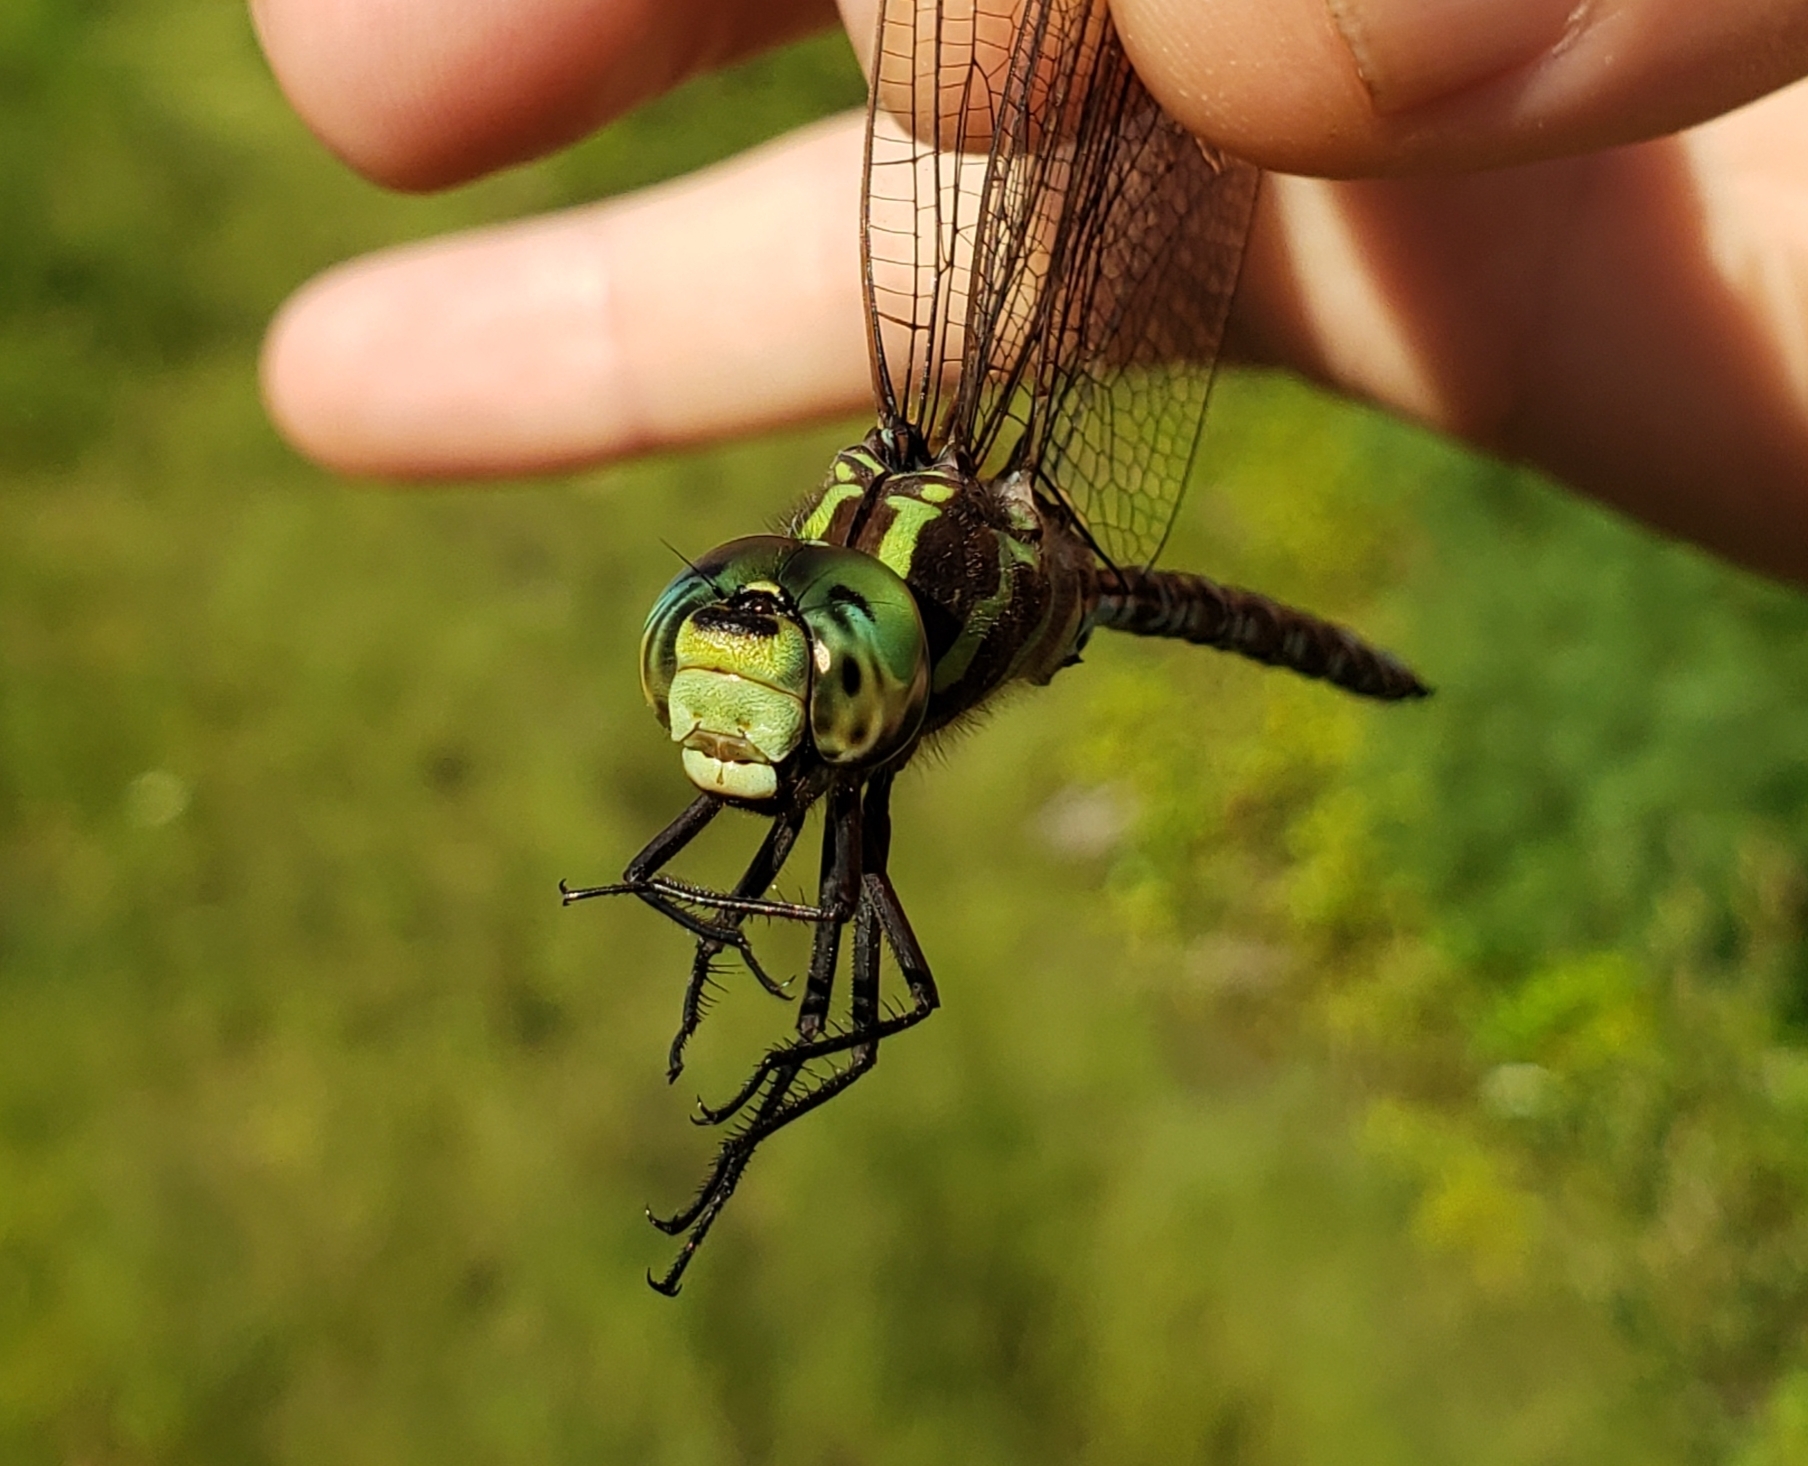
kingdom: Animalia
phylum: Arthropoda
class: Insecta
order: Odonata
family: Aeshnidae
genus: Aeshna
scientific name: Aeshna verticalis
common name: Green-striped darner
